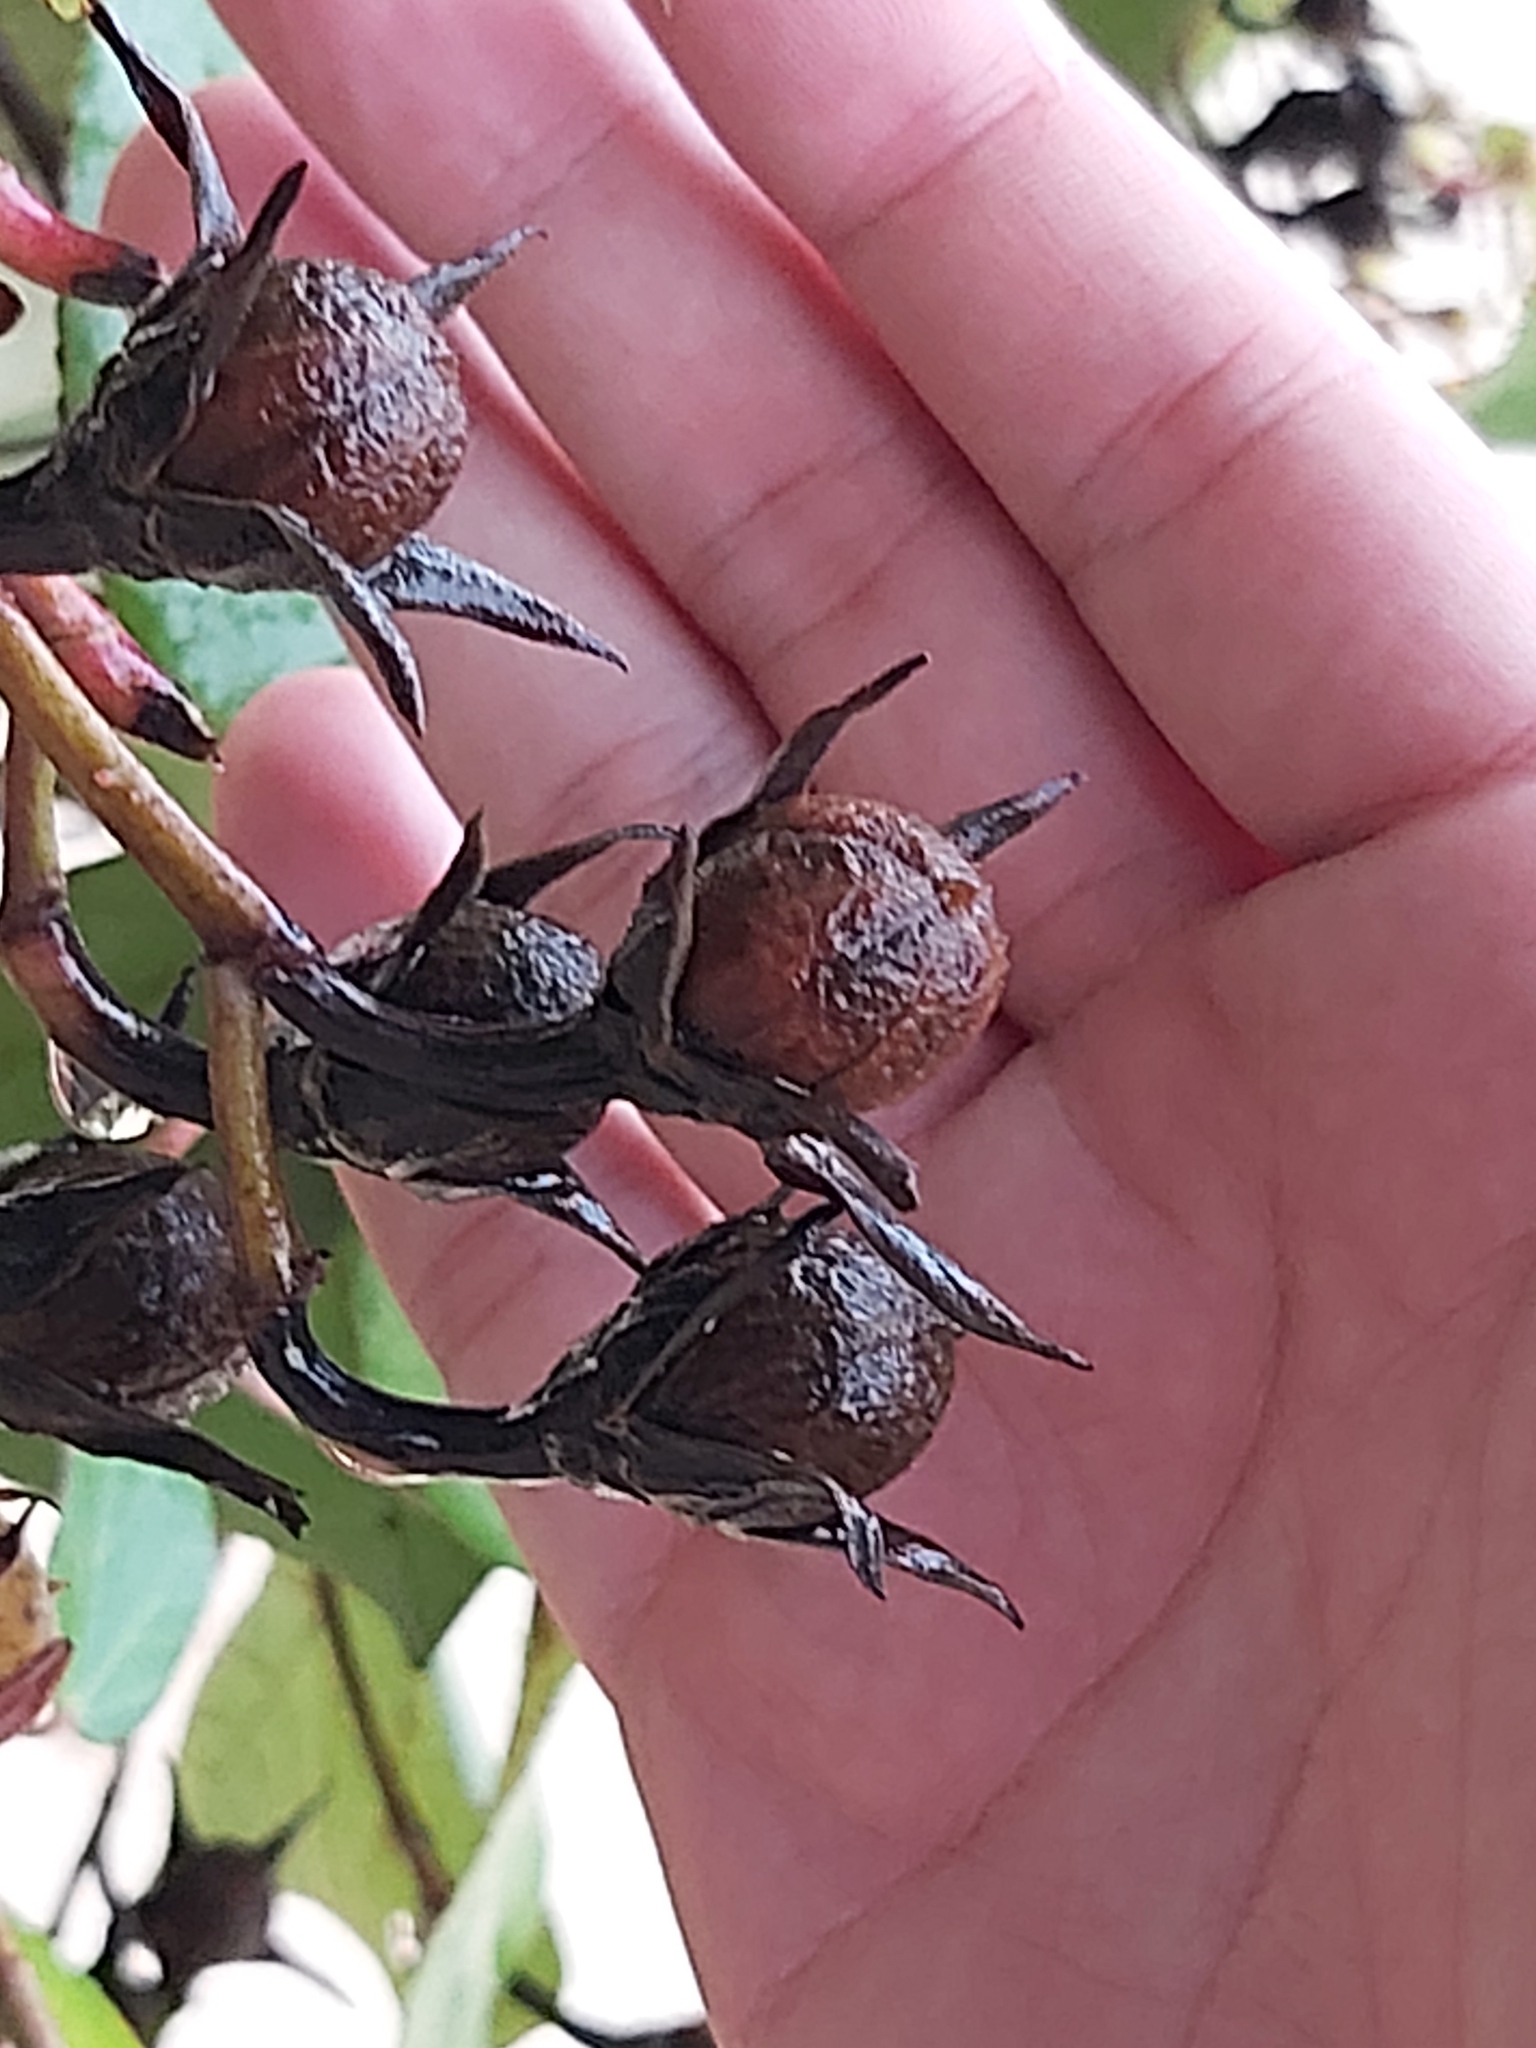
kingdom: Plantae
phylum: Tracheophyta
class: Magnoliopsida
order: Malvales
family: Malvaceae
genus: Talipariti
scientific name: Talipariti tiliaceum
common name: Sea hibiscus
